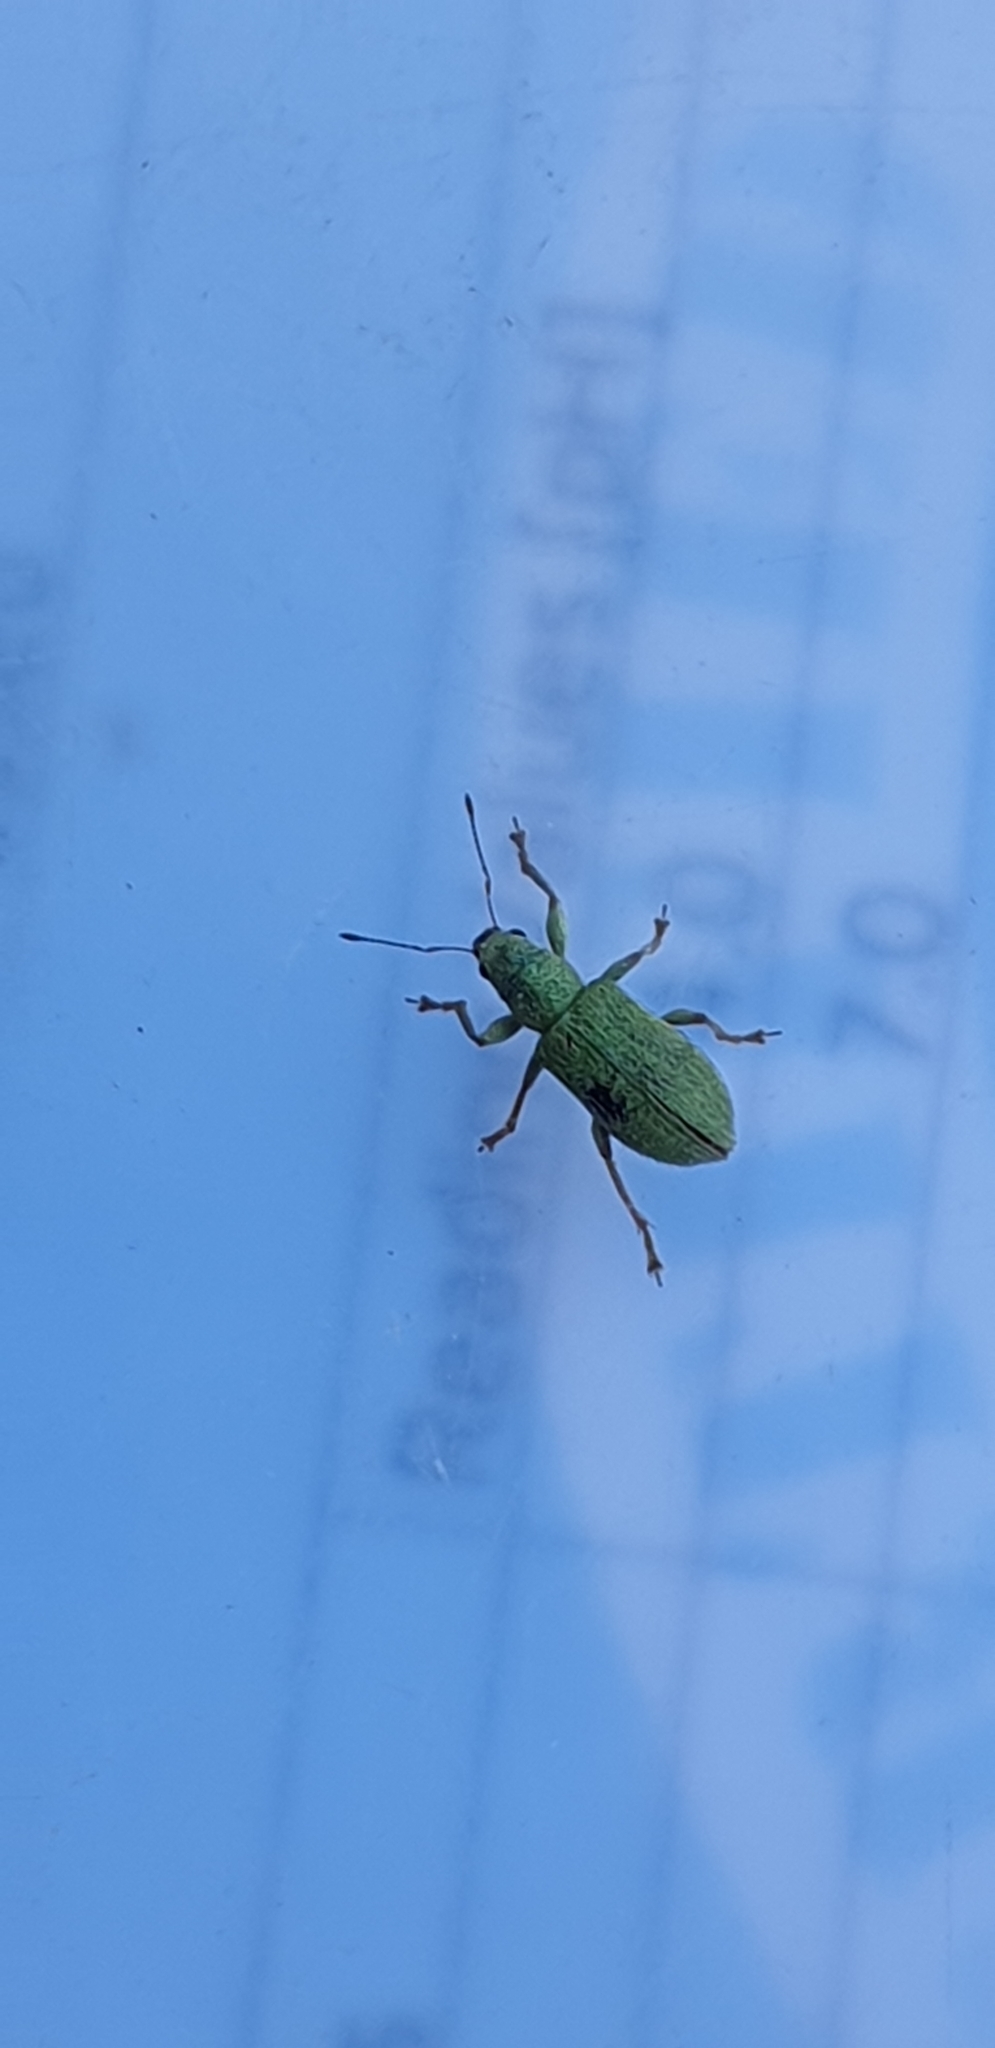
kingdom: Animalia
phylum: Arthropoda
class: Insecta
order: Coleoptera
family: Curculionidae
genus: Pachyrhinus
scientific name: Pachyrhinus lethierryi
